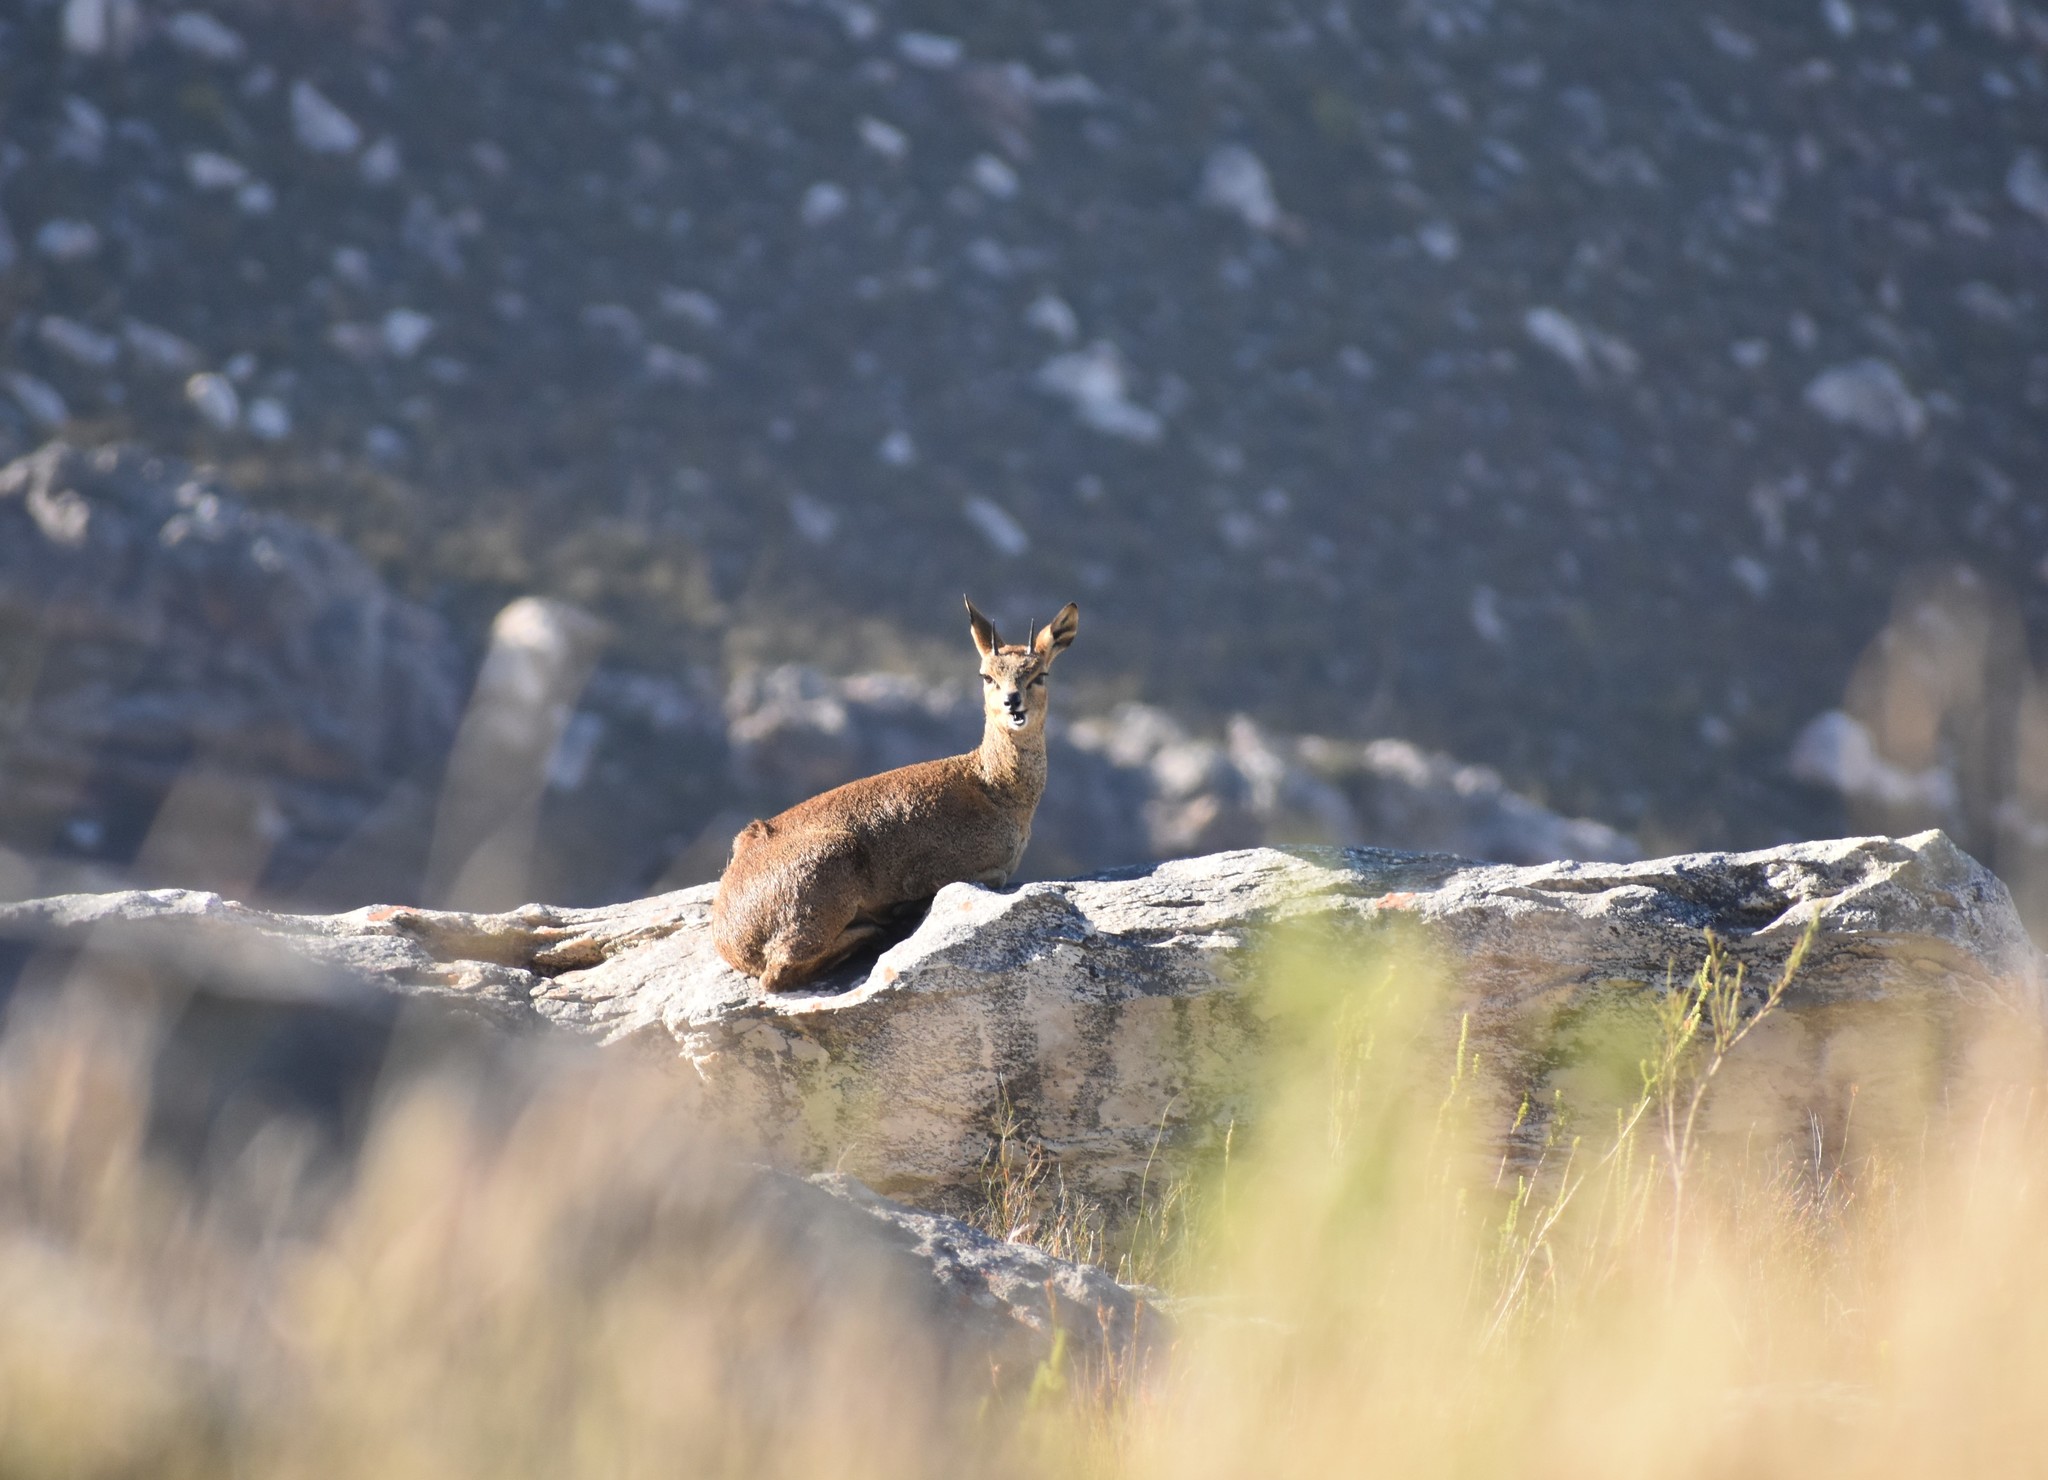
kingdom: Animalia
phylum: Chordata
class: Mammalia
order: Artiodactyla
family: Bovidae
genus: Oreotragus
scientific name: Oreotragus oreotragus
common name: Klipspringer
